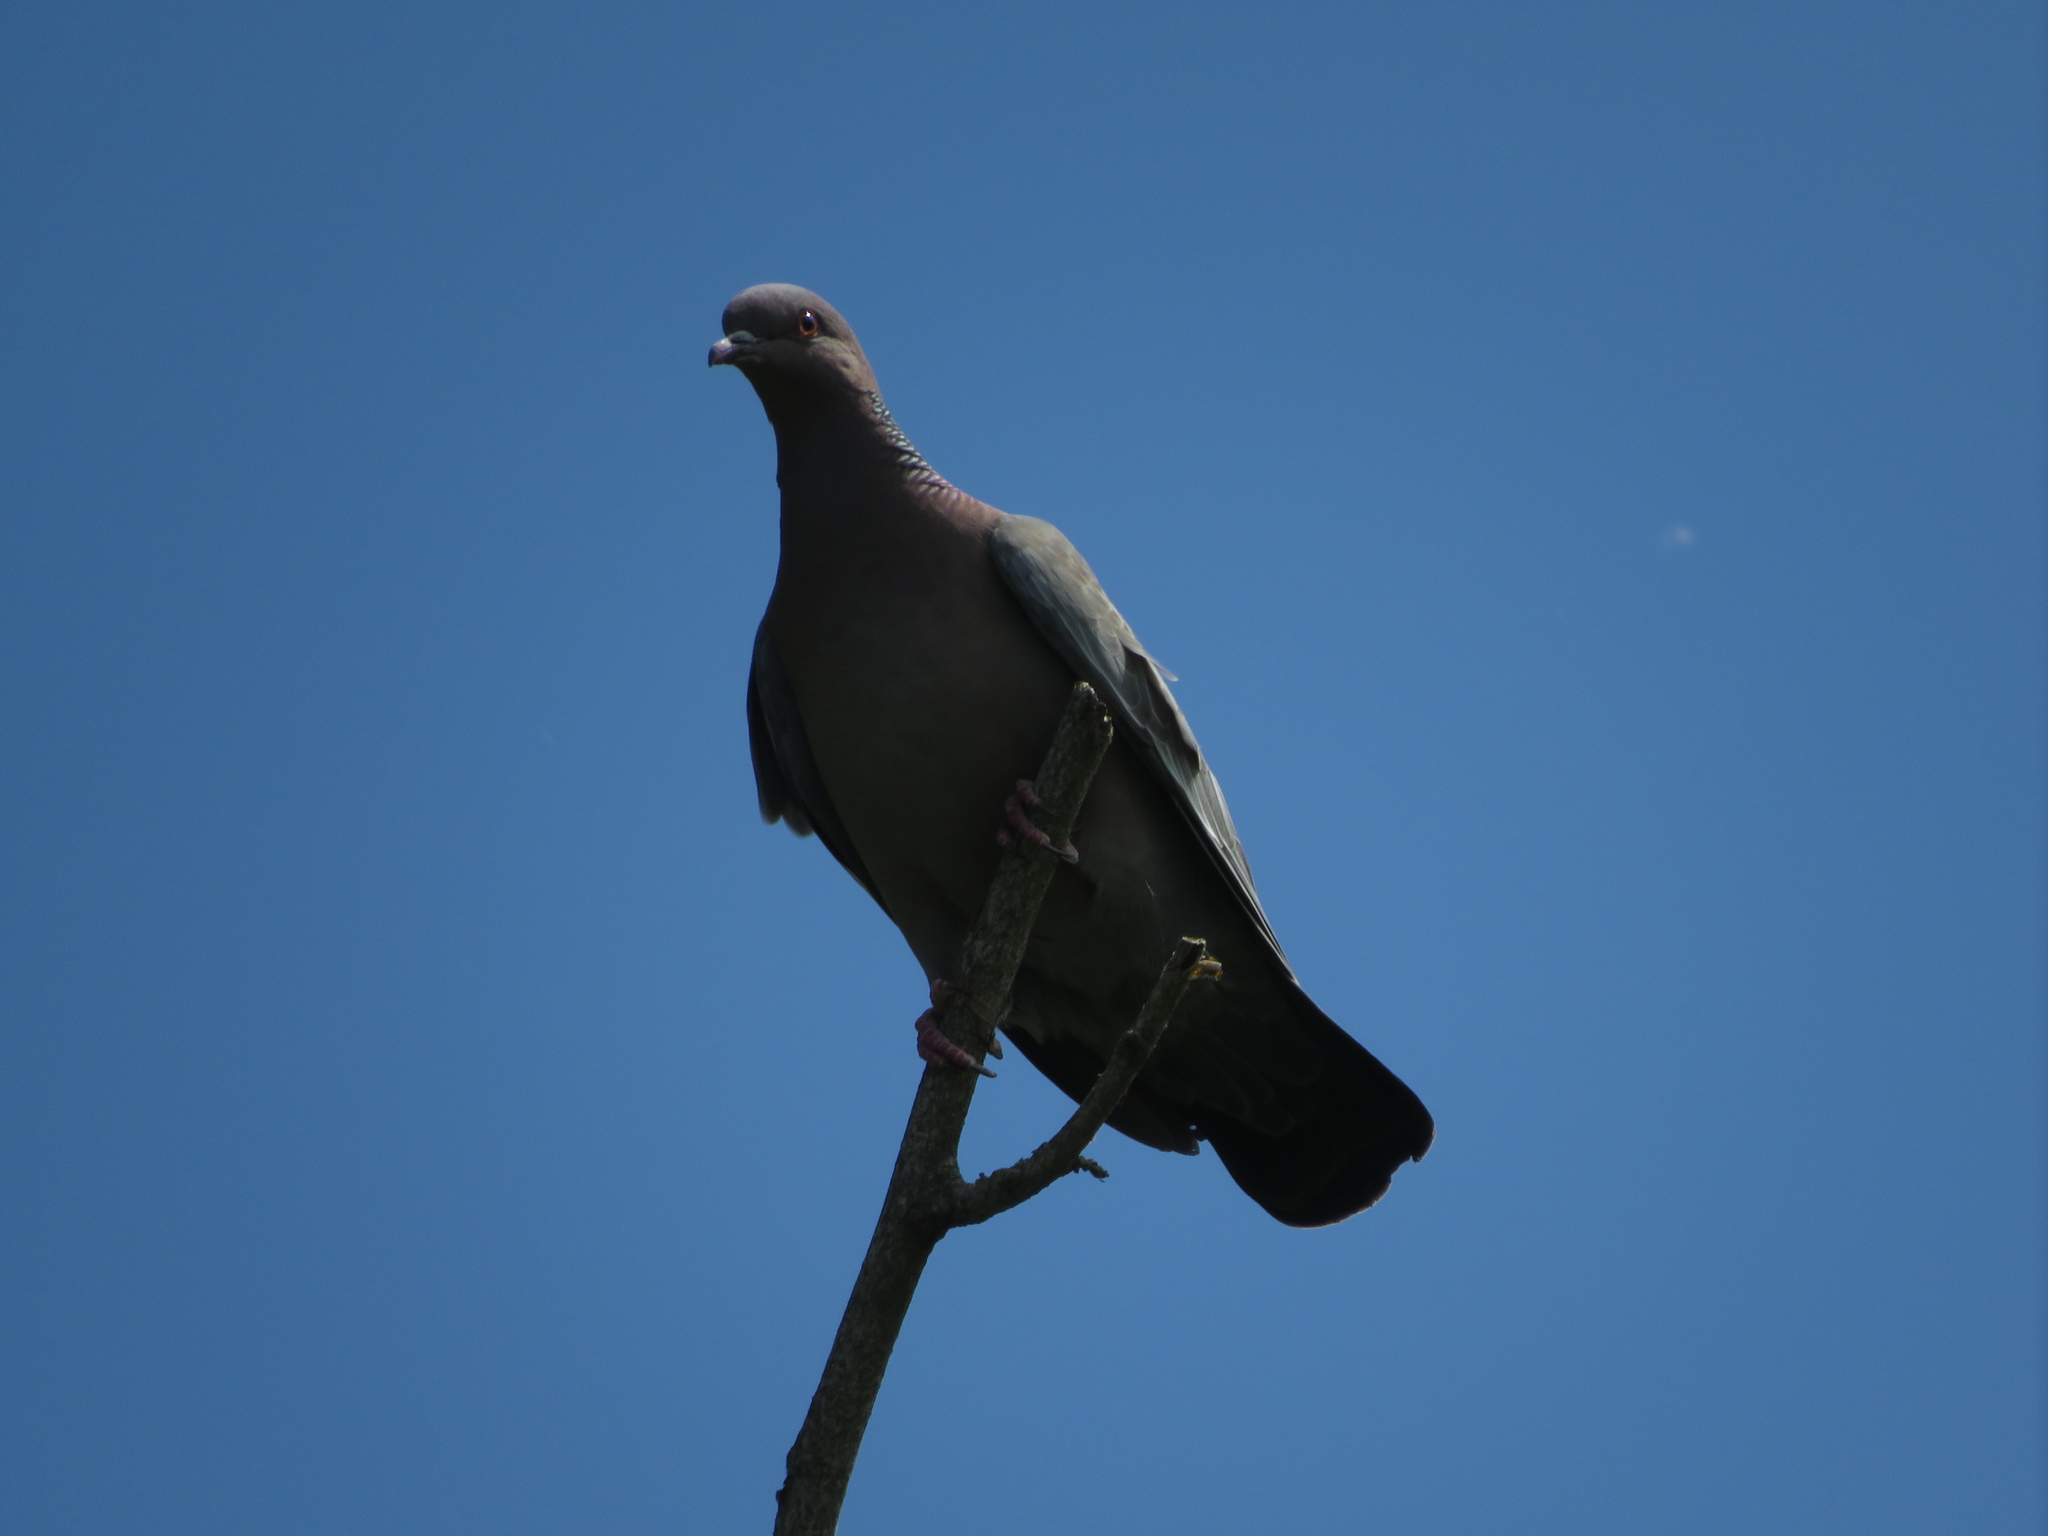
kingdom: Animalia
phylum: Chordata
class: Aves
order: Columbiformes
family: Columbidae
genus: Patagioenas
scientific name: Patagioenas picazuro
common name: Picazuro pigeon
